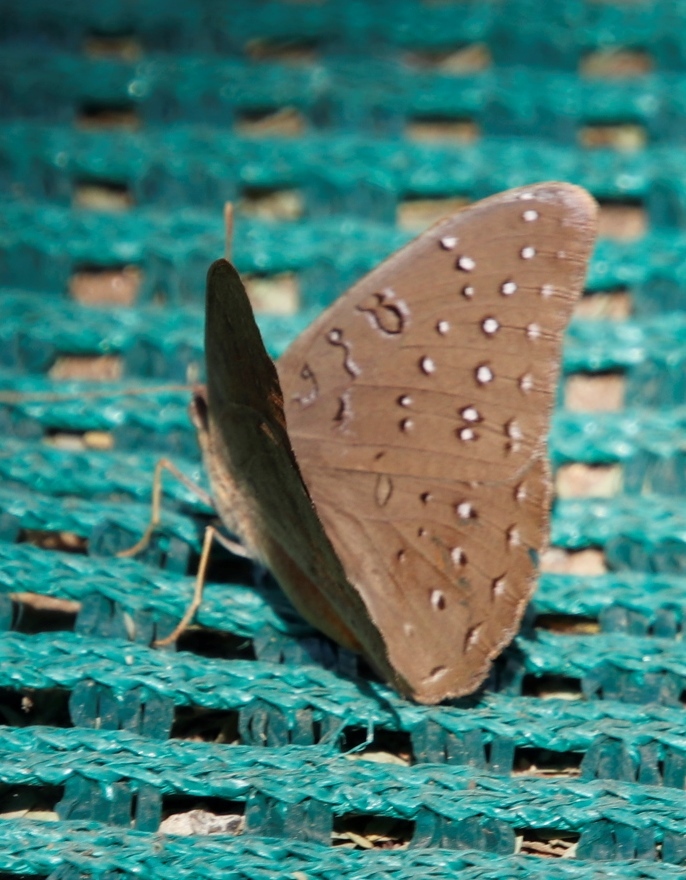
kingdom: Animalia
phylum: Arthropoda
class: Insecta
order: Lepidoptera
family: Nymphalidae
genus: Hamanumida
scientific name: Hamanumida daedalus
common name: Guinea-fowl butterfly
